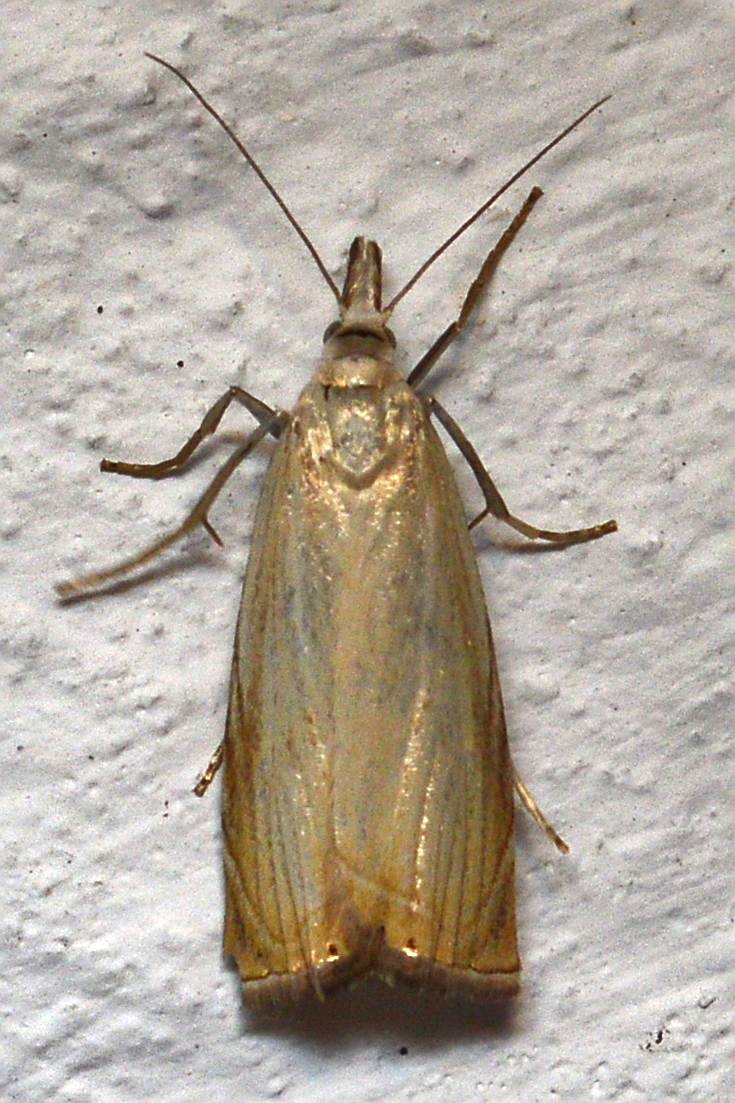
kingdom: Animalia
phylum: Arthropoda
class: Insecta
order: Lepidoptera
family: Crambidae
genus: Chrysoteuchia
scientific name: Chrysoteuchia culmella
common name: Garden grass-veneer
